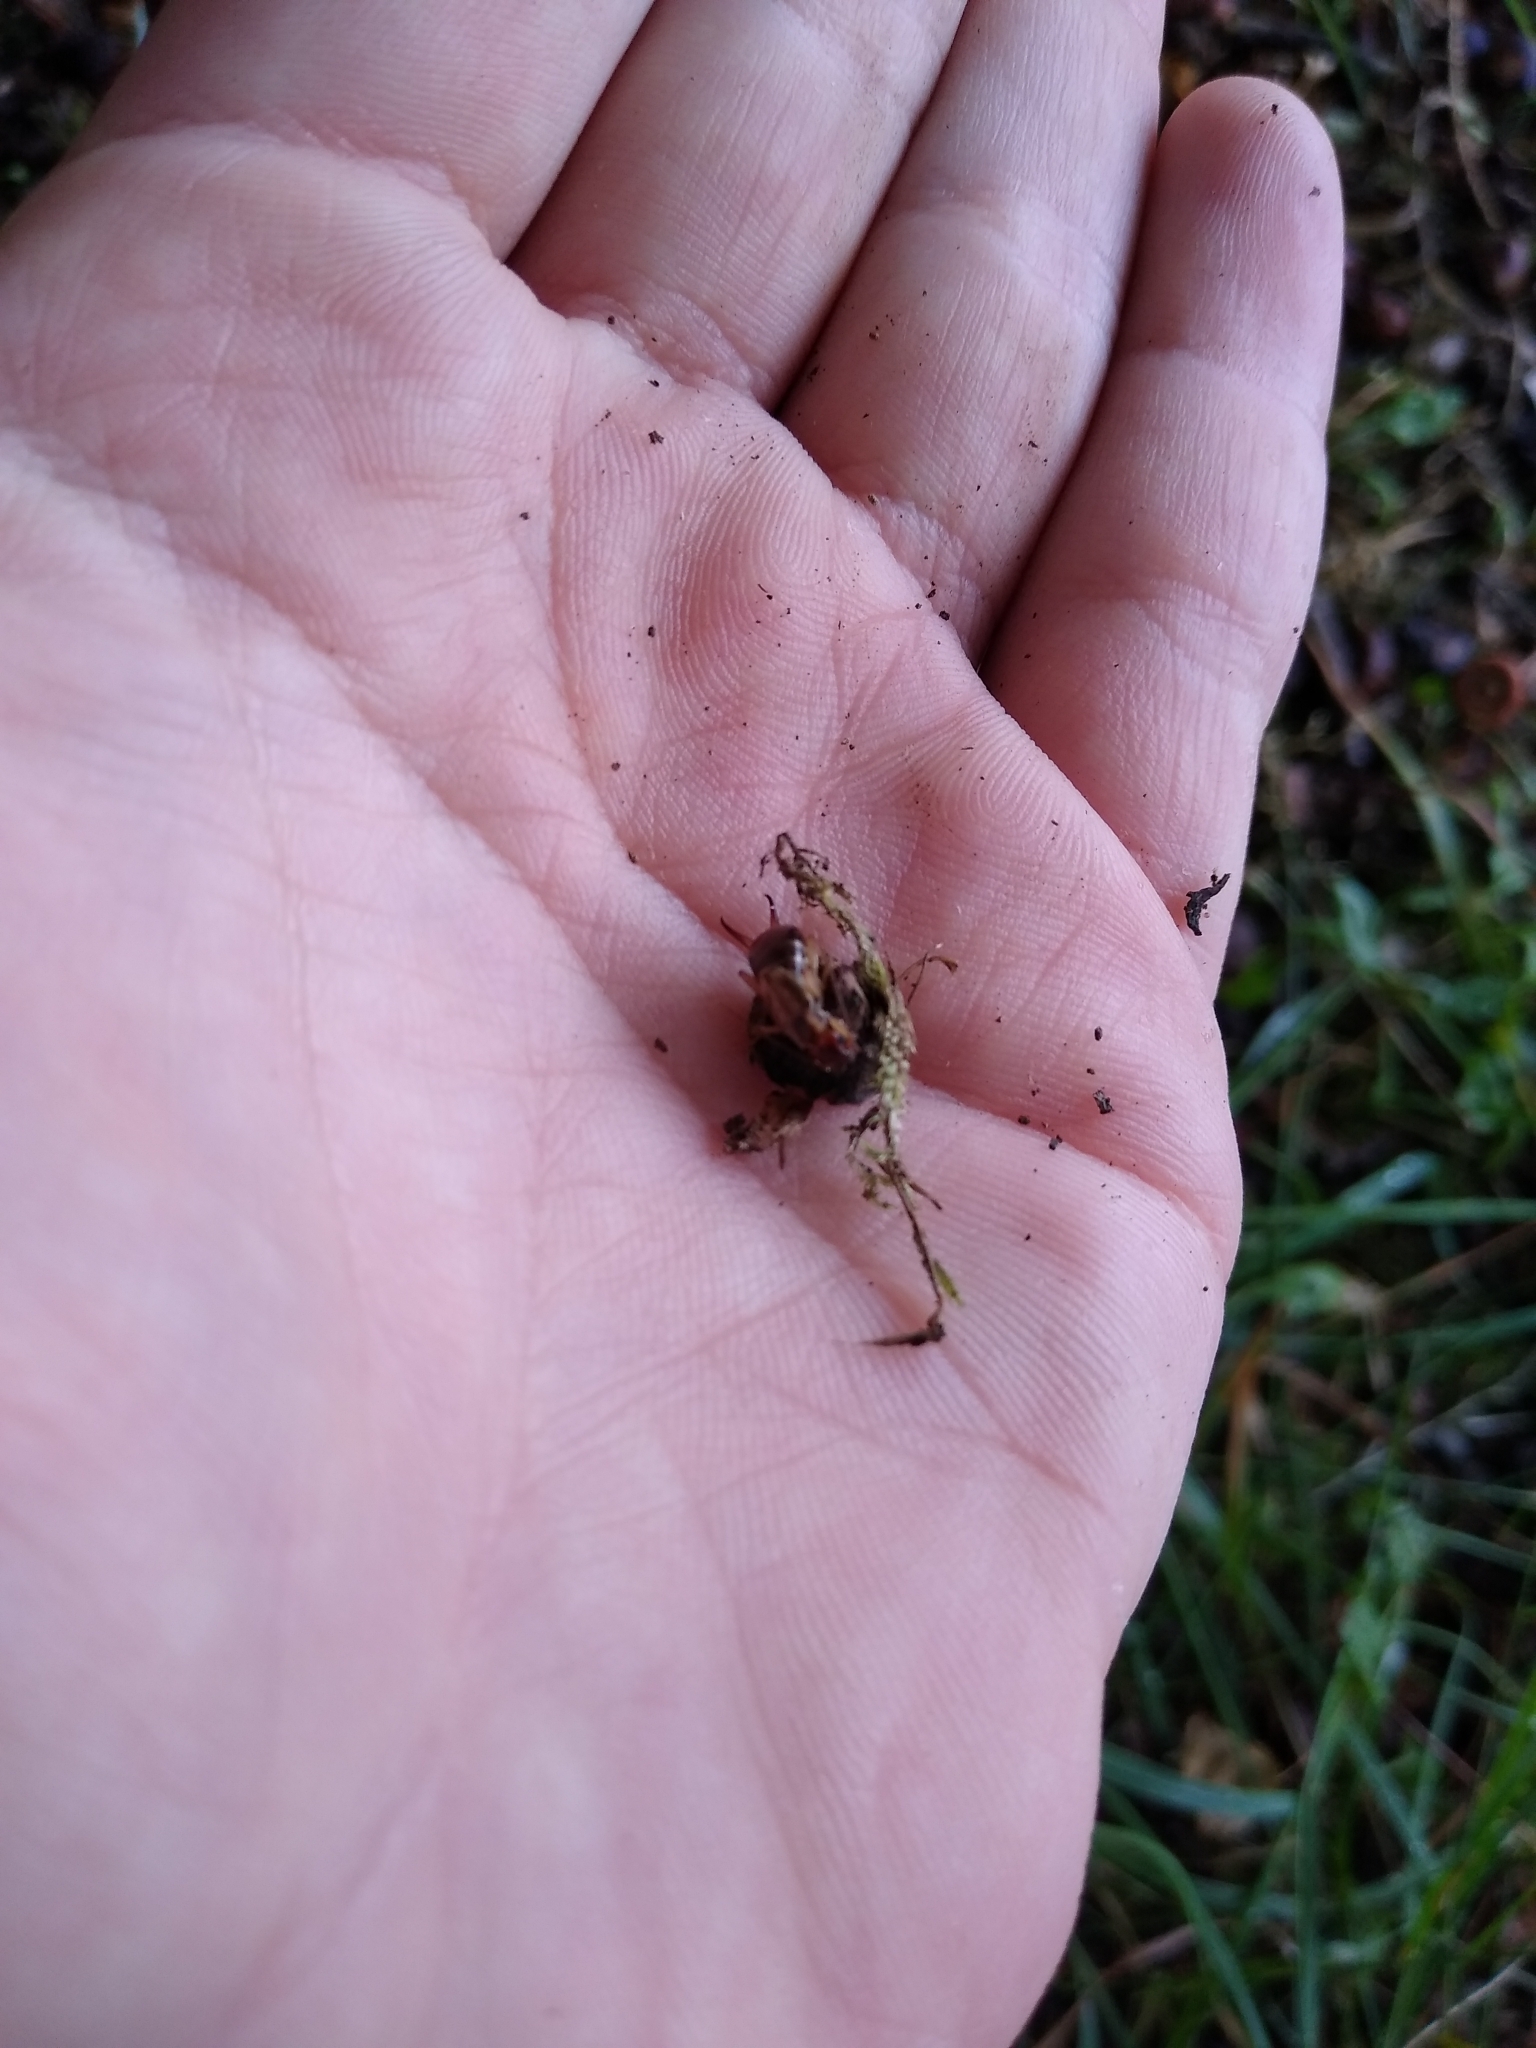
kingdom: Animalia
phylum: Arthropoda
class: Insecta
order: Dermaptera
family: Forficulidae
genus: Forficula
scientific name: Forficula
